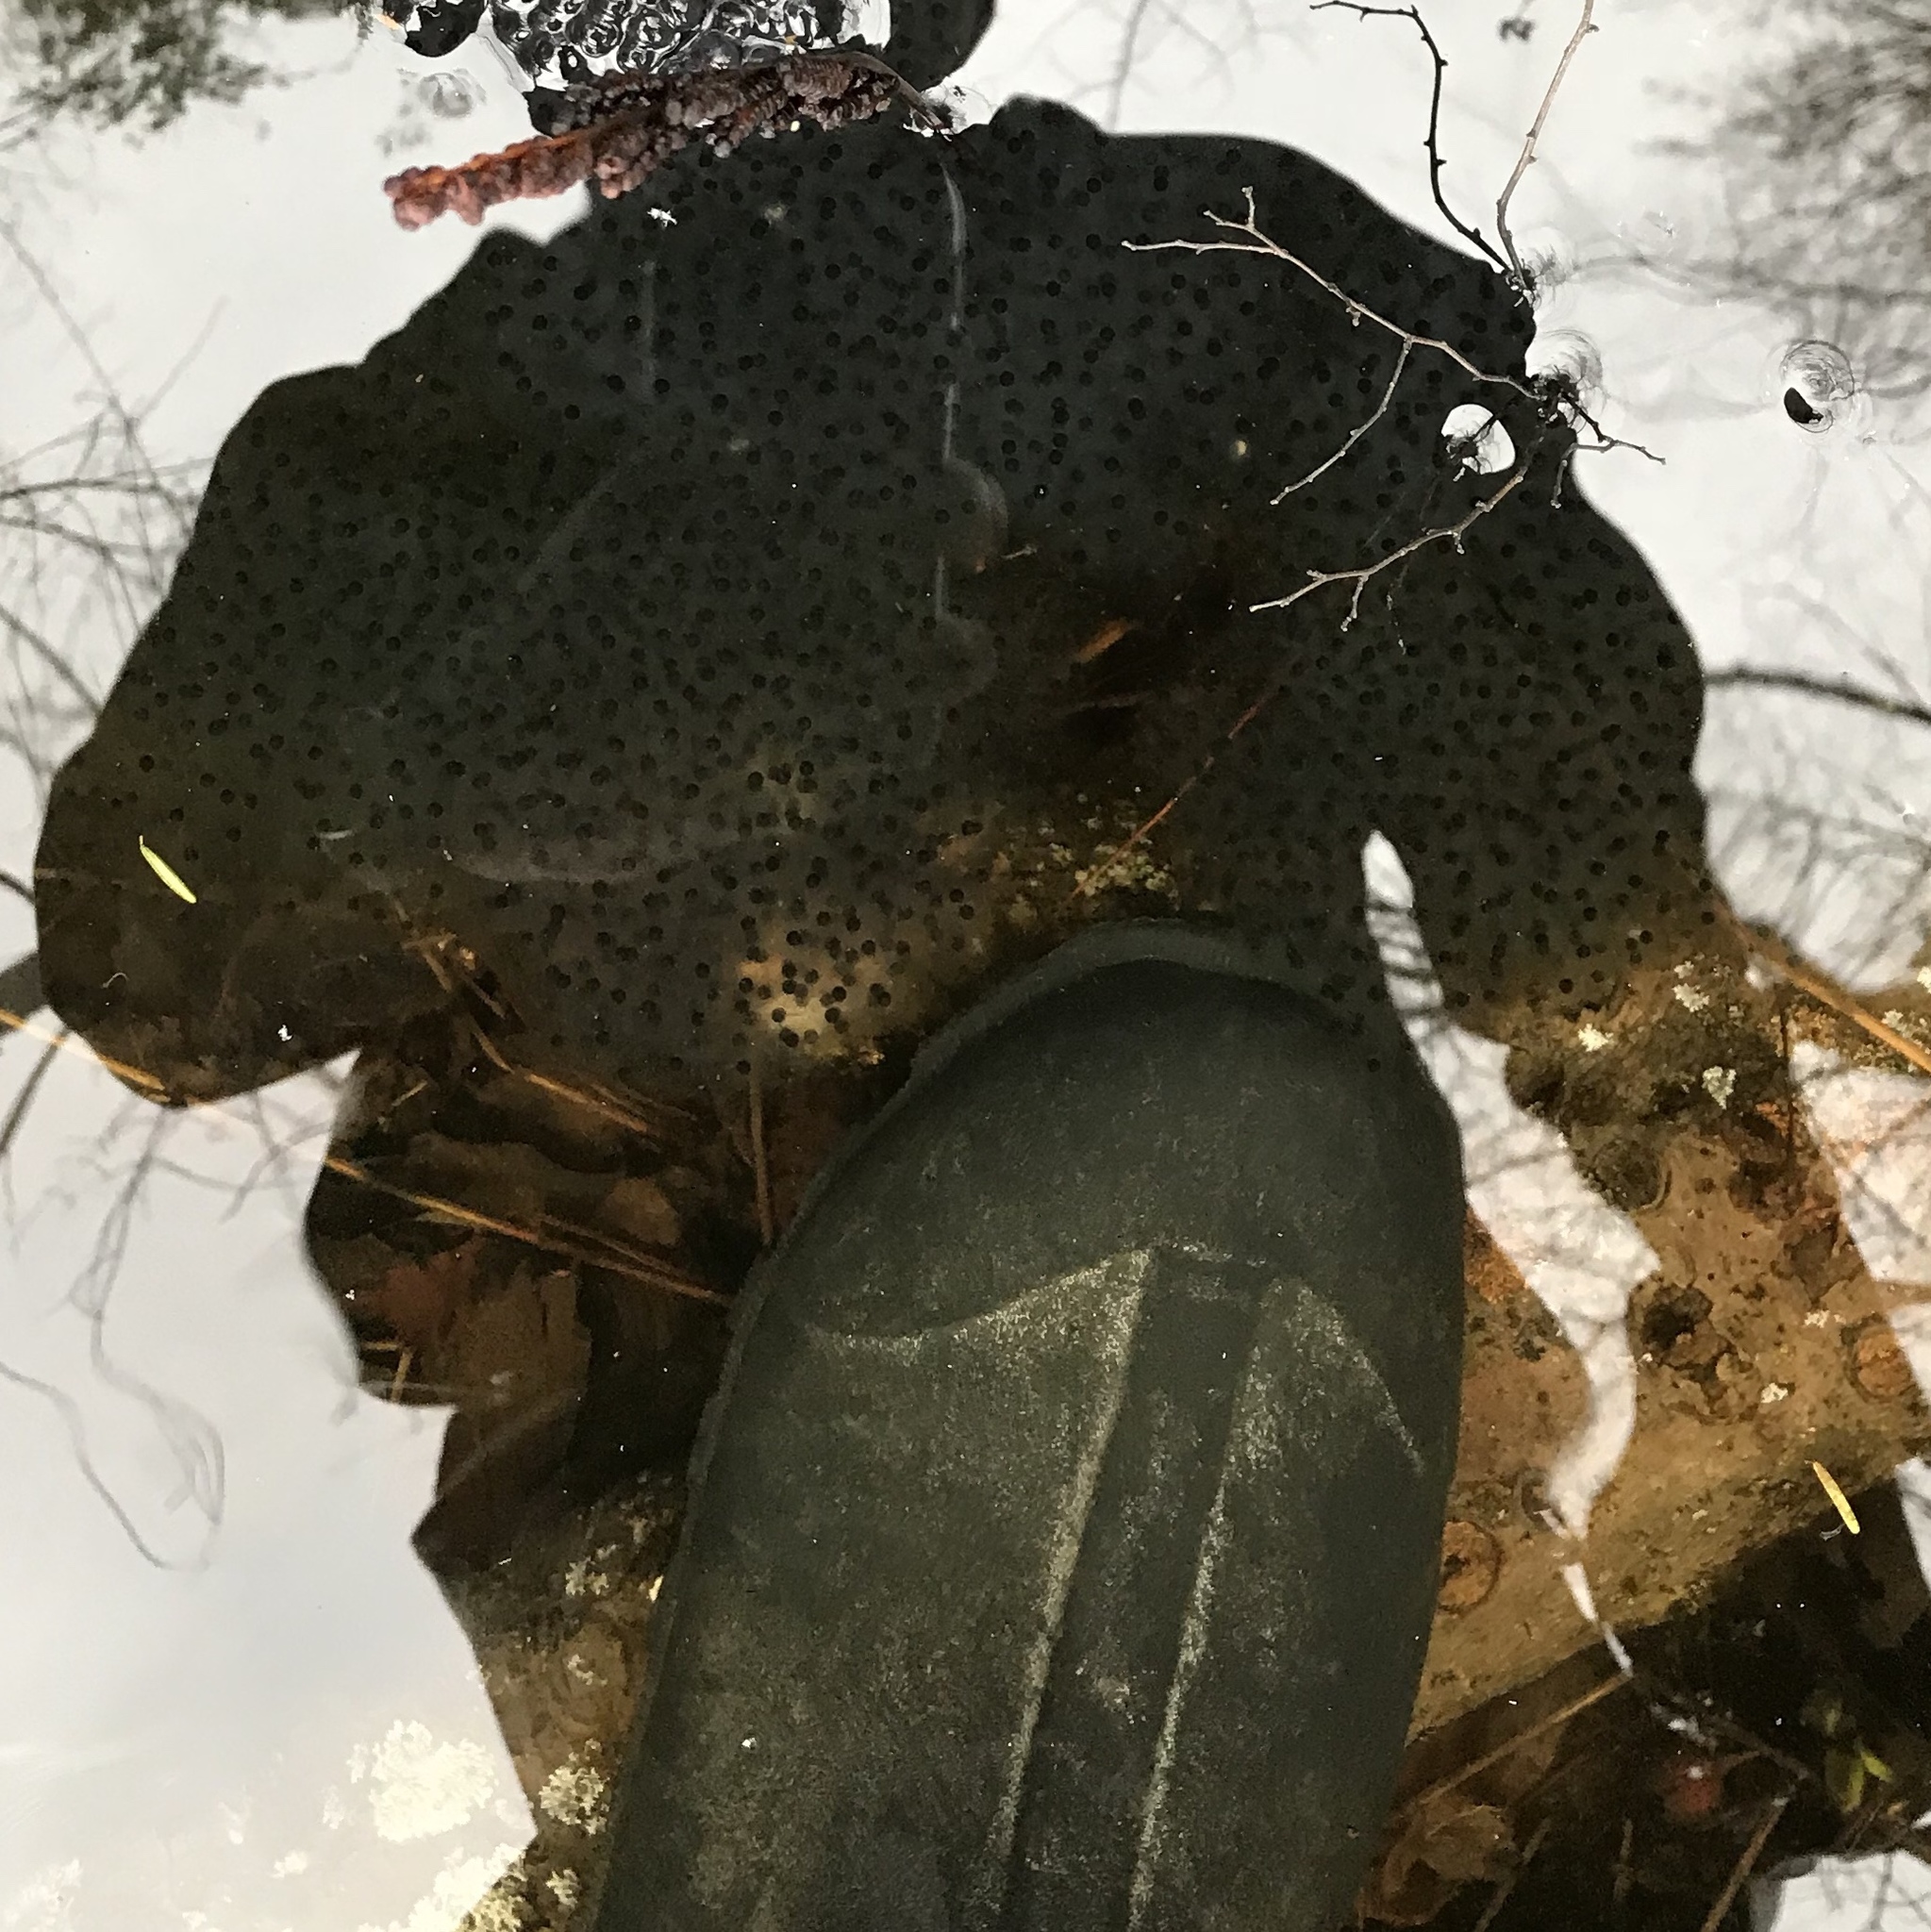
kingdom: Animalia
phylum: Chordata
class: Amphibia
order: Anura
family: Ranidae
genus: Lithobates
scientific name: Lithobates sylvaticus
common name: Wood frog
